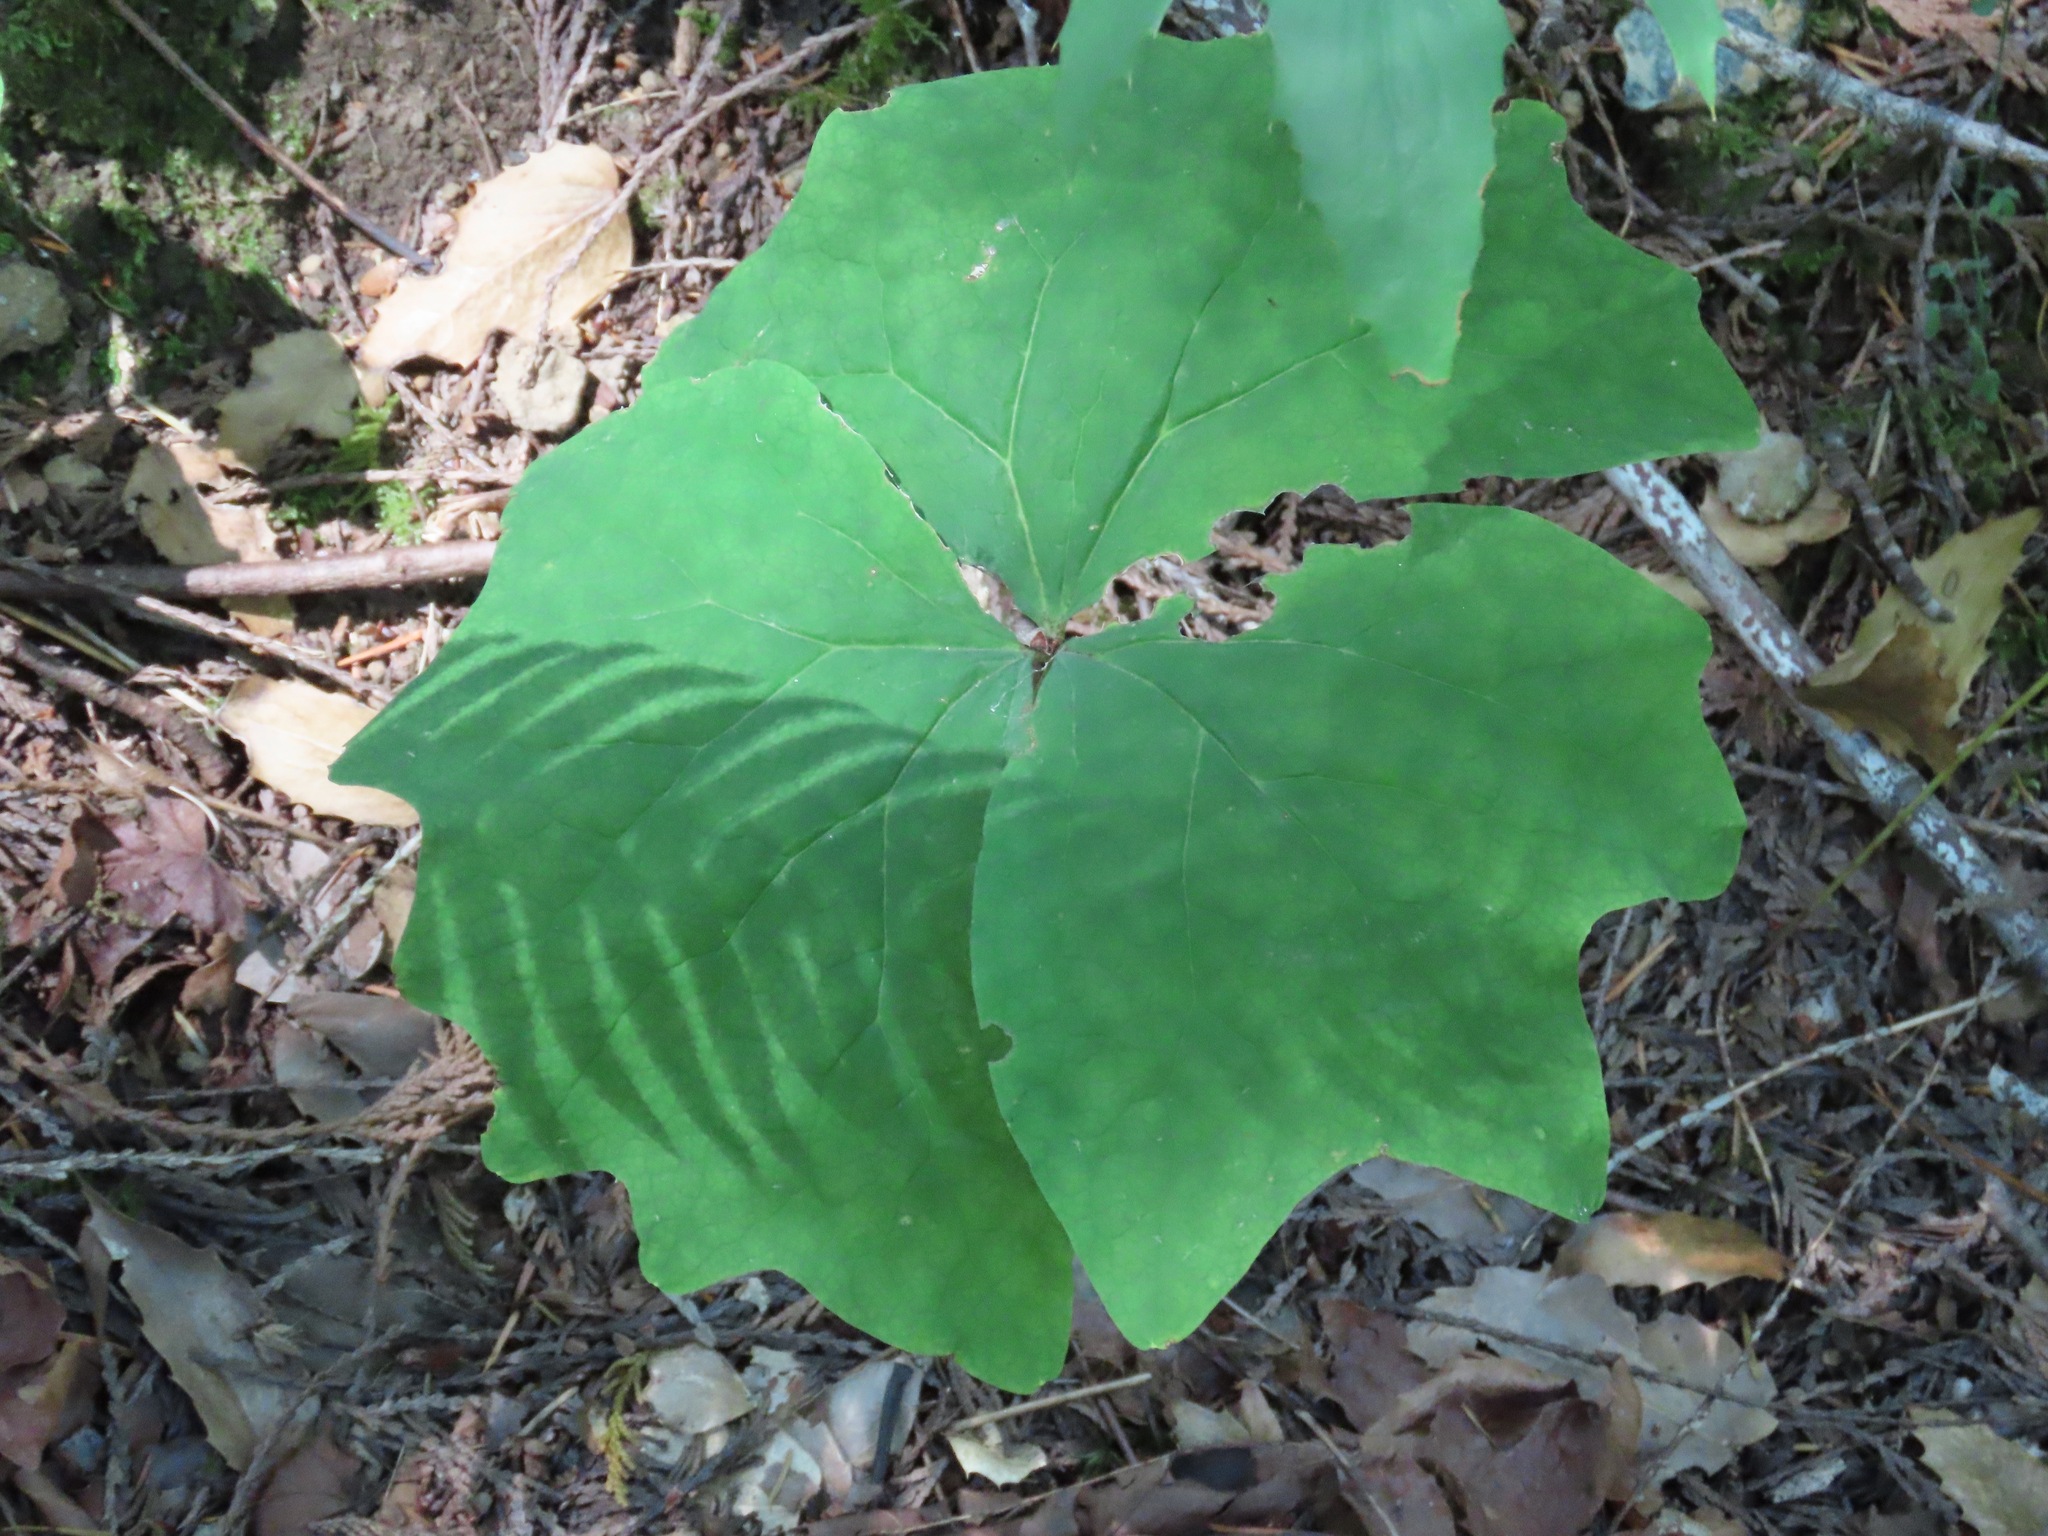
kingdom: Plantae
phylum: Tracheophyta
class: Magnoliopsida
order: Ranunculales
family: Berberidaceae
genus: Achlys
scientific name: Achlys triphylla
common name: Vanilla-leaf
